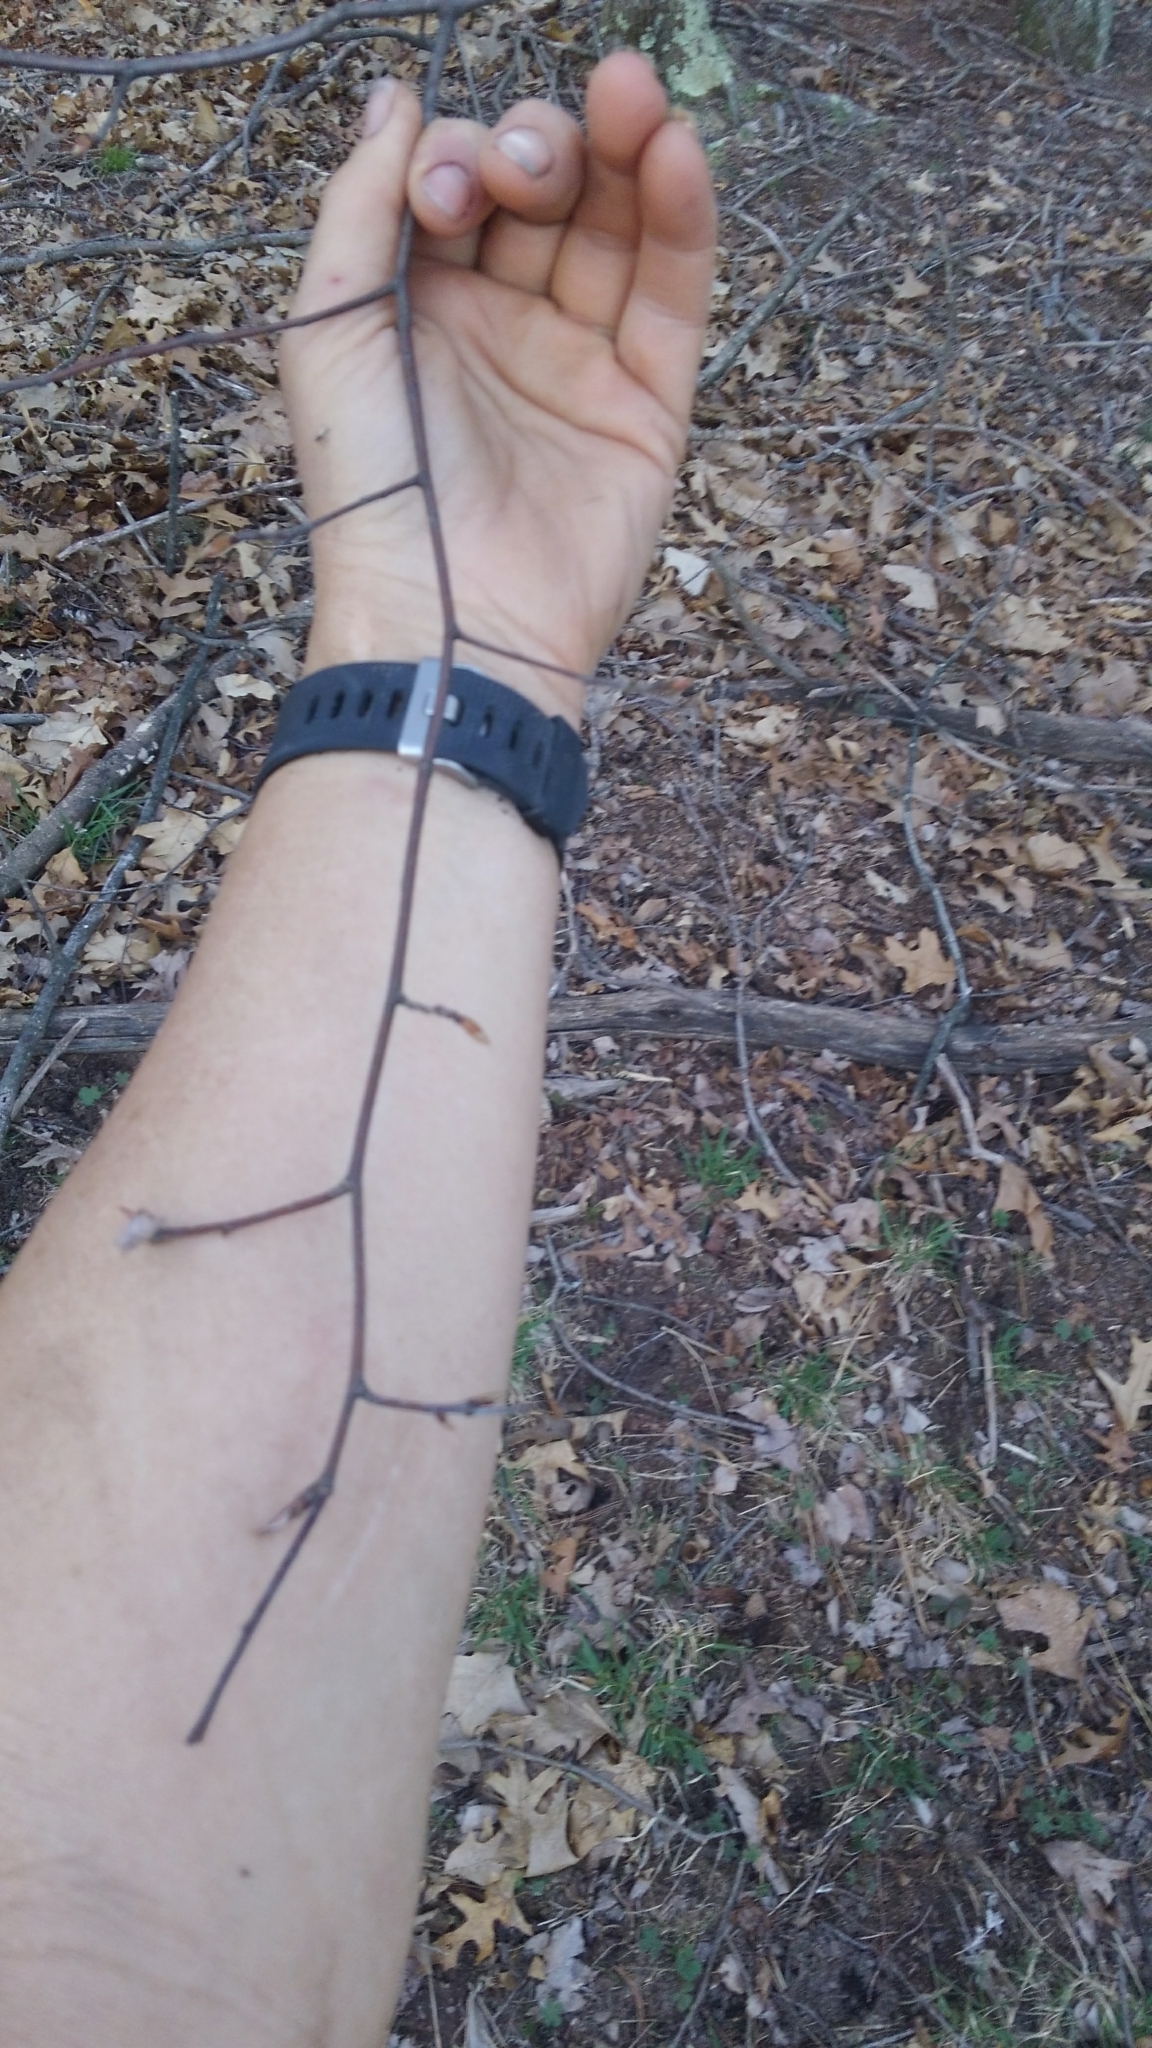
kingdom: Plantae
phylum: Tracheophyta
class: Magnoliopsida
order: Rosales
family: Rosaceae
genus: Amelanchier
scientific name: Amelanchier arborea
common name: Downy serviceberry
